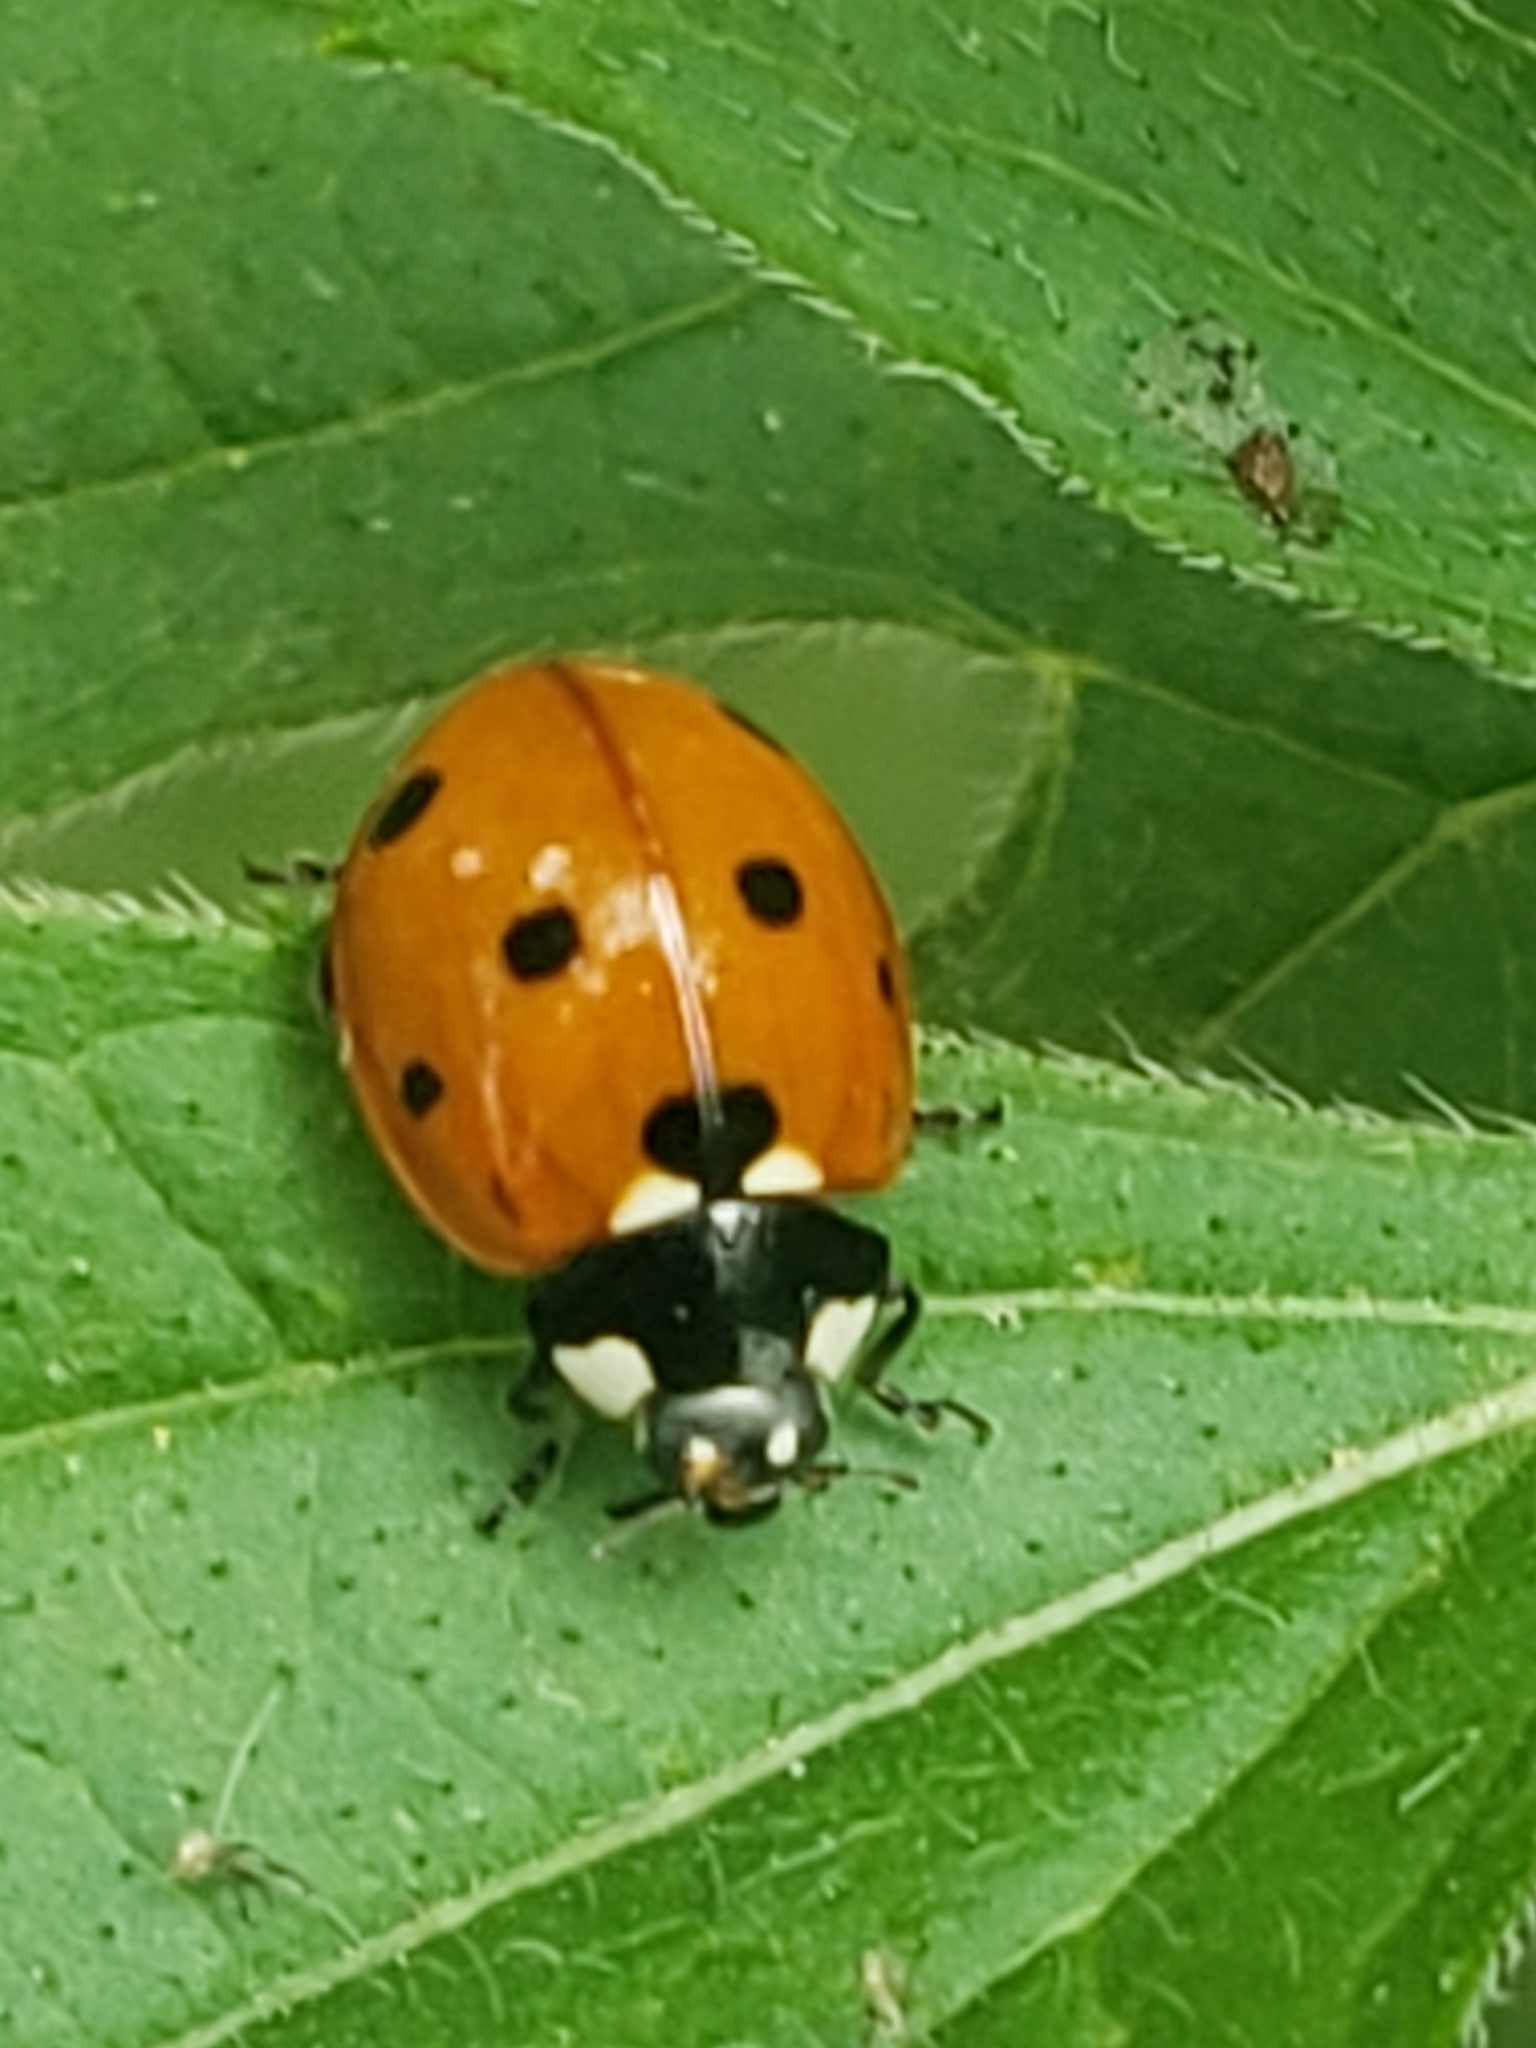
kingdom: Animalia
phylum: Arthropoda
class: Insecta
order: Coleoptera
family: Coccinellidae
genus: Coccinella
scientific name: Coccinella septempunctata
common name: Sevenspotted lady beetle
